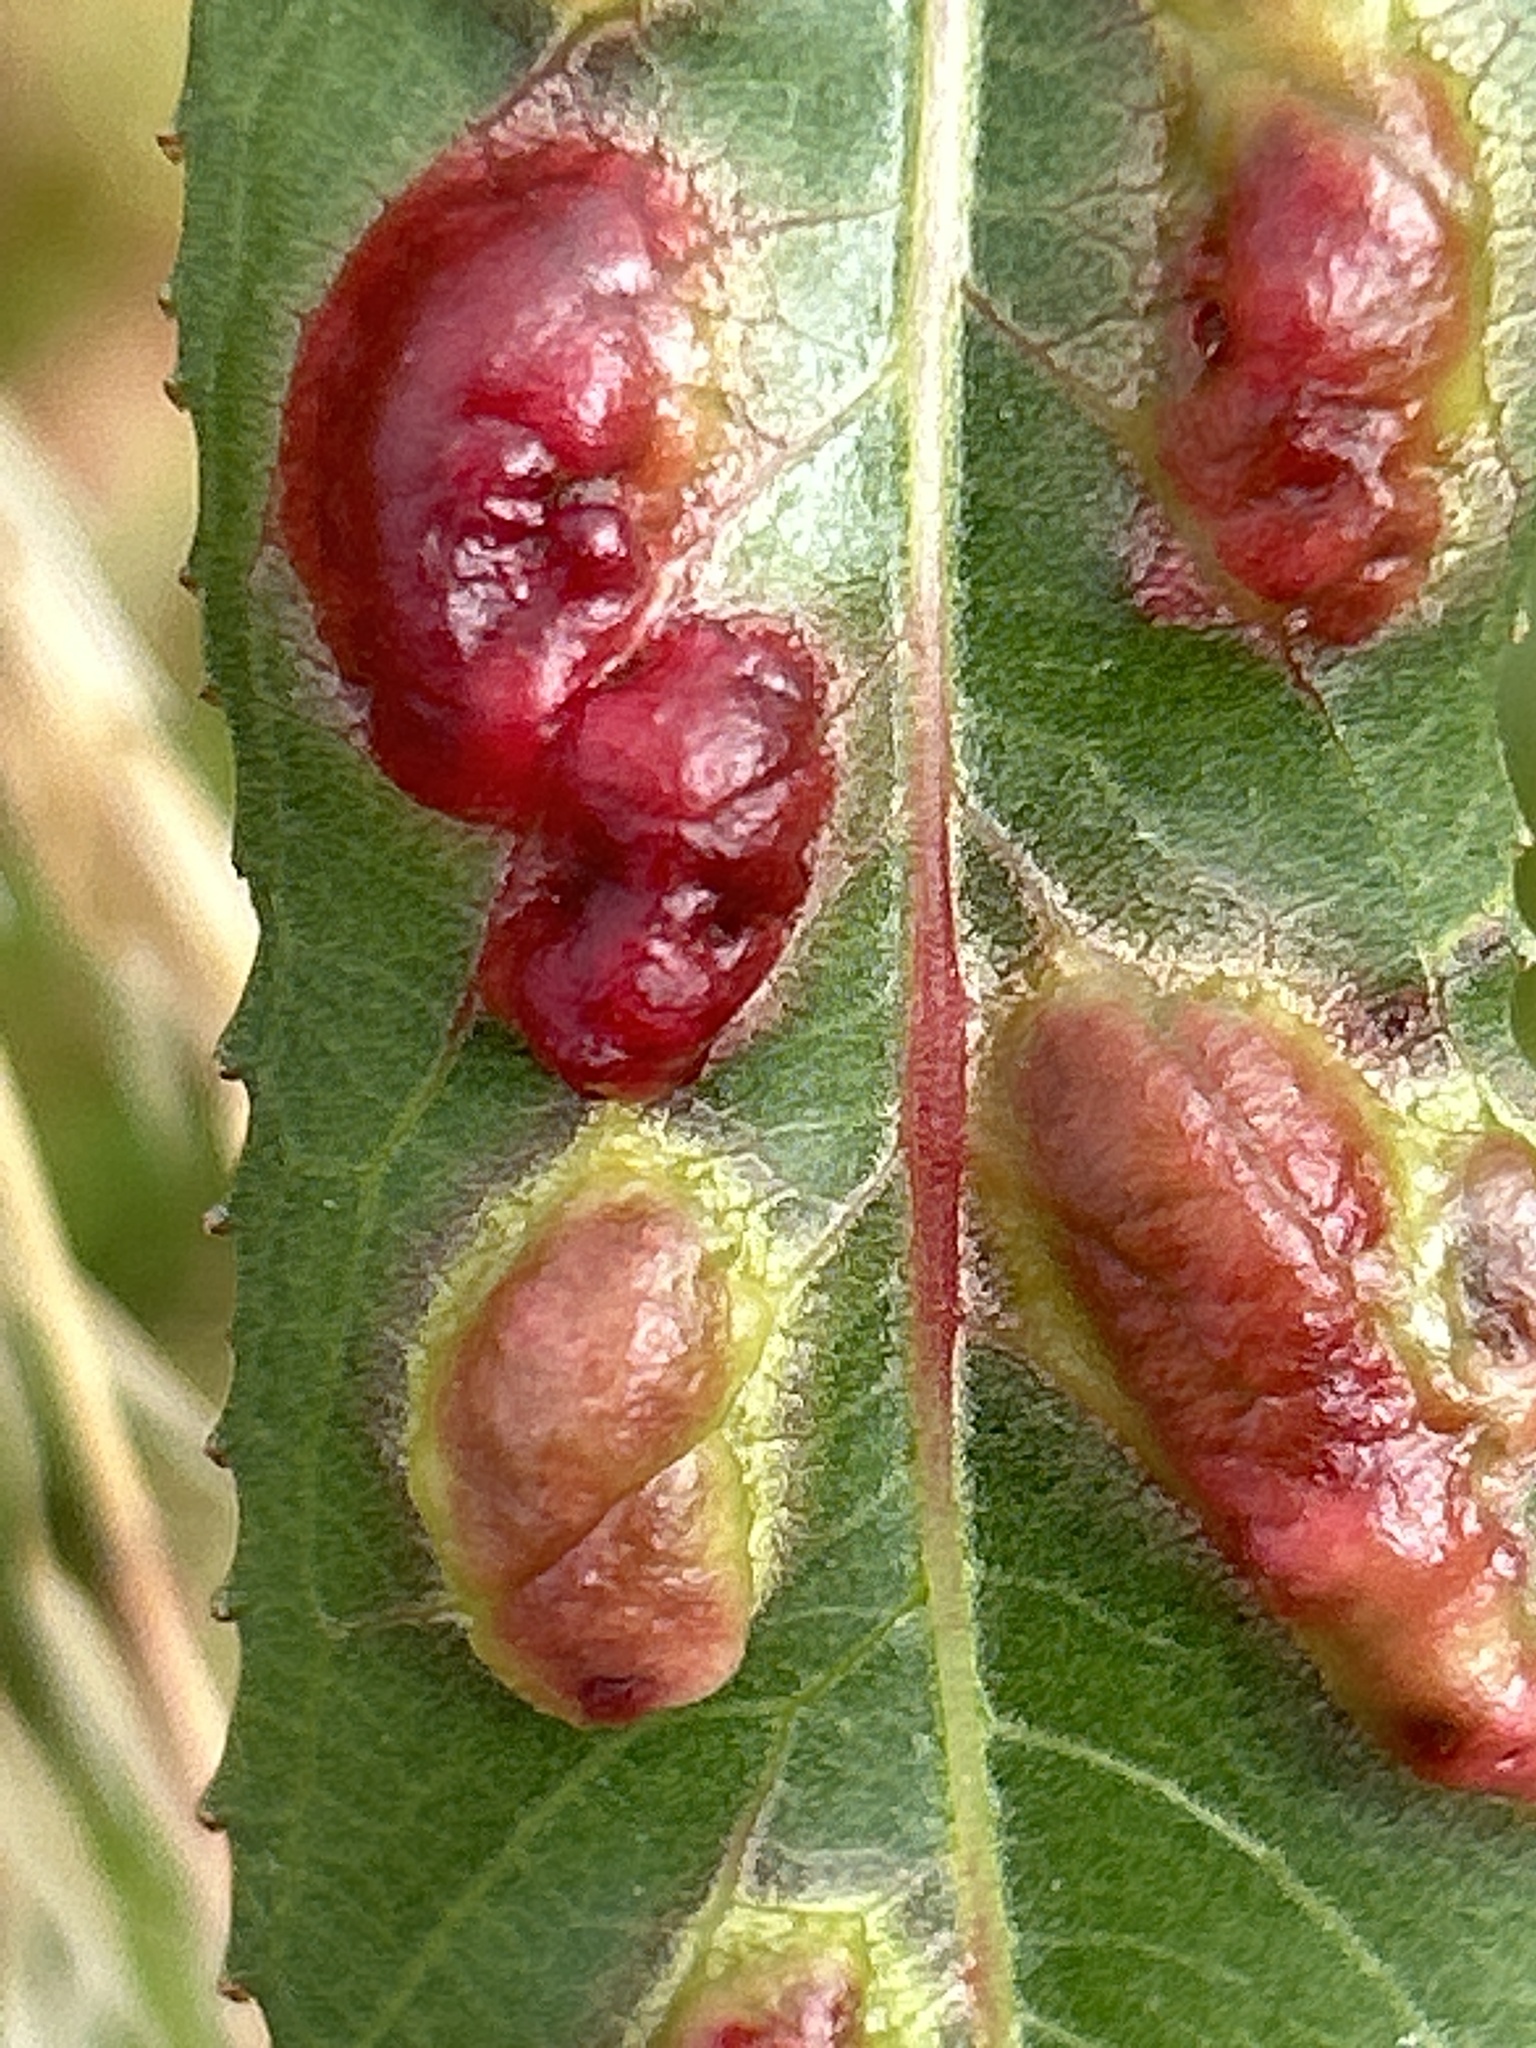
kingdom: Animalia
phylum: Arthropoda
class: Insecta
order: Hymenoptera
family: Tenthredinidae
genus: Pontania
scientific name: Pontania proxima
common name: Common sawfly
